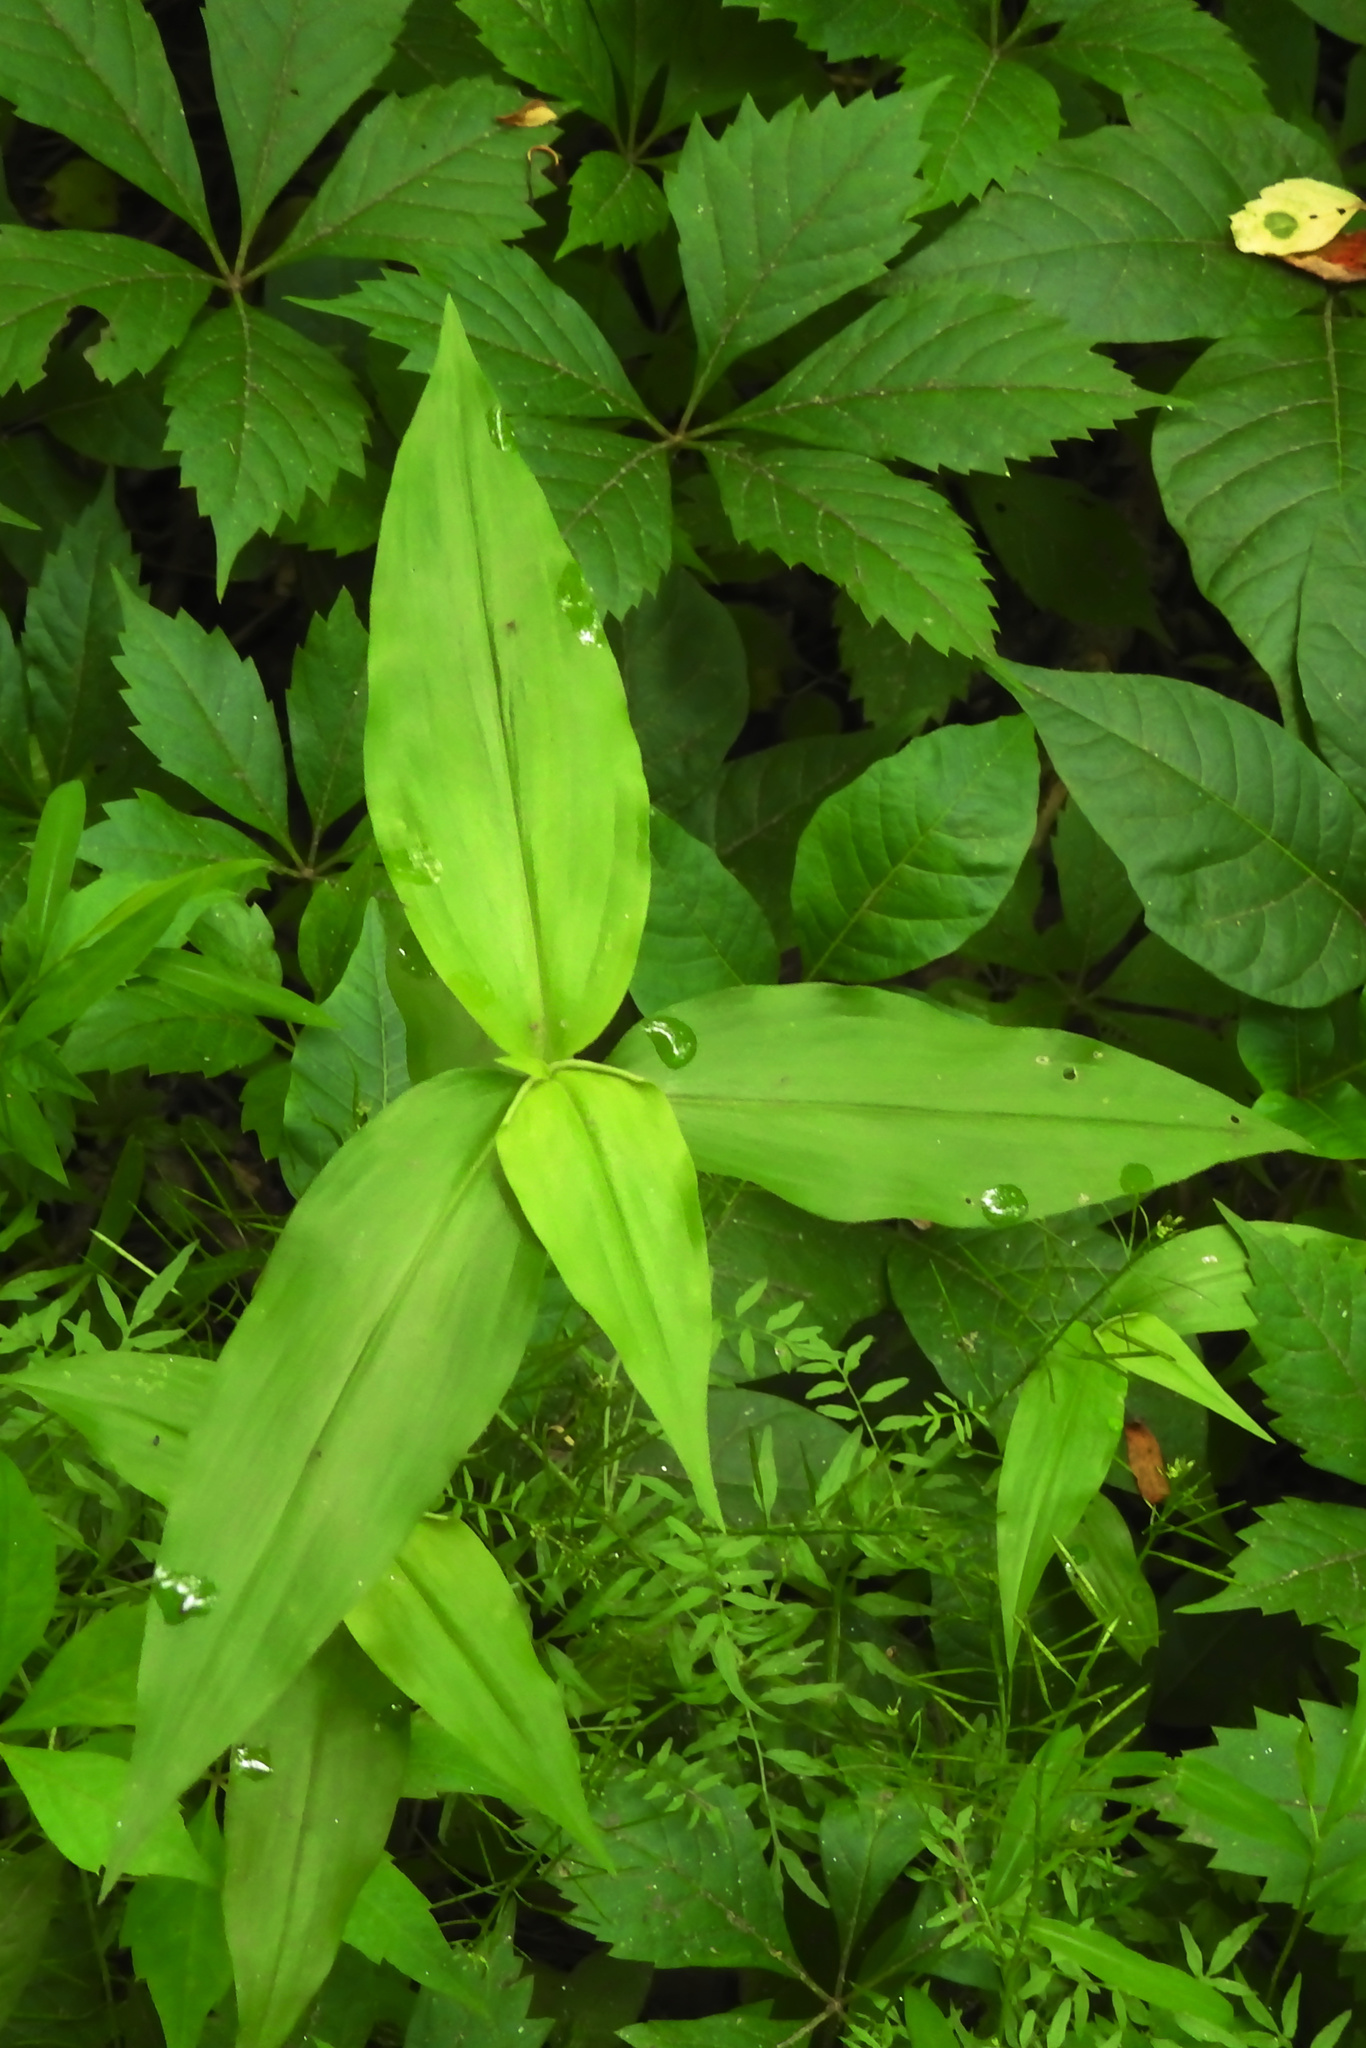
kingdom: Plantae
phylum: Tracheophyta
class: Liliopsida
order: Commelinales
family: Commelinaceae
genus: Commelina
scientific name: Commelina communis
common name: Asiatic dayflower
